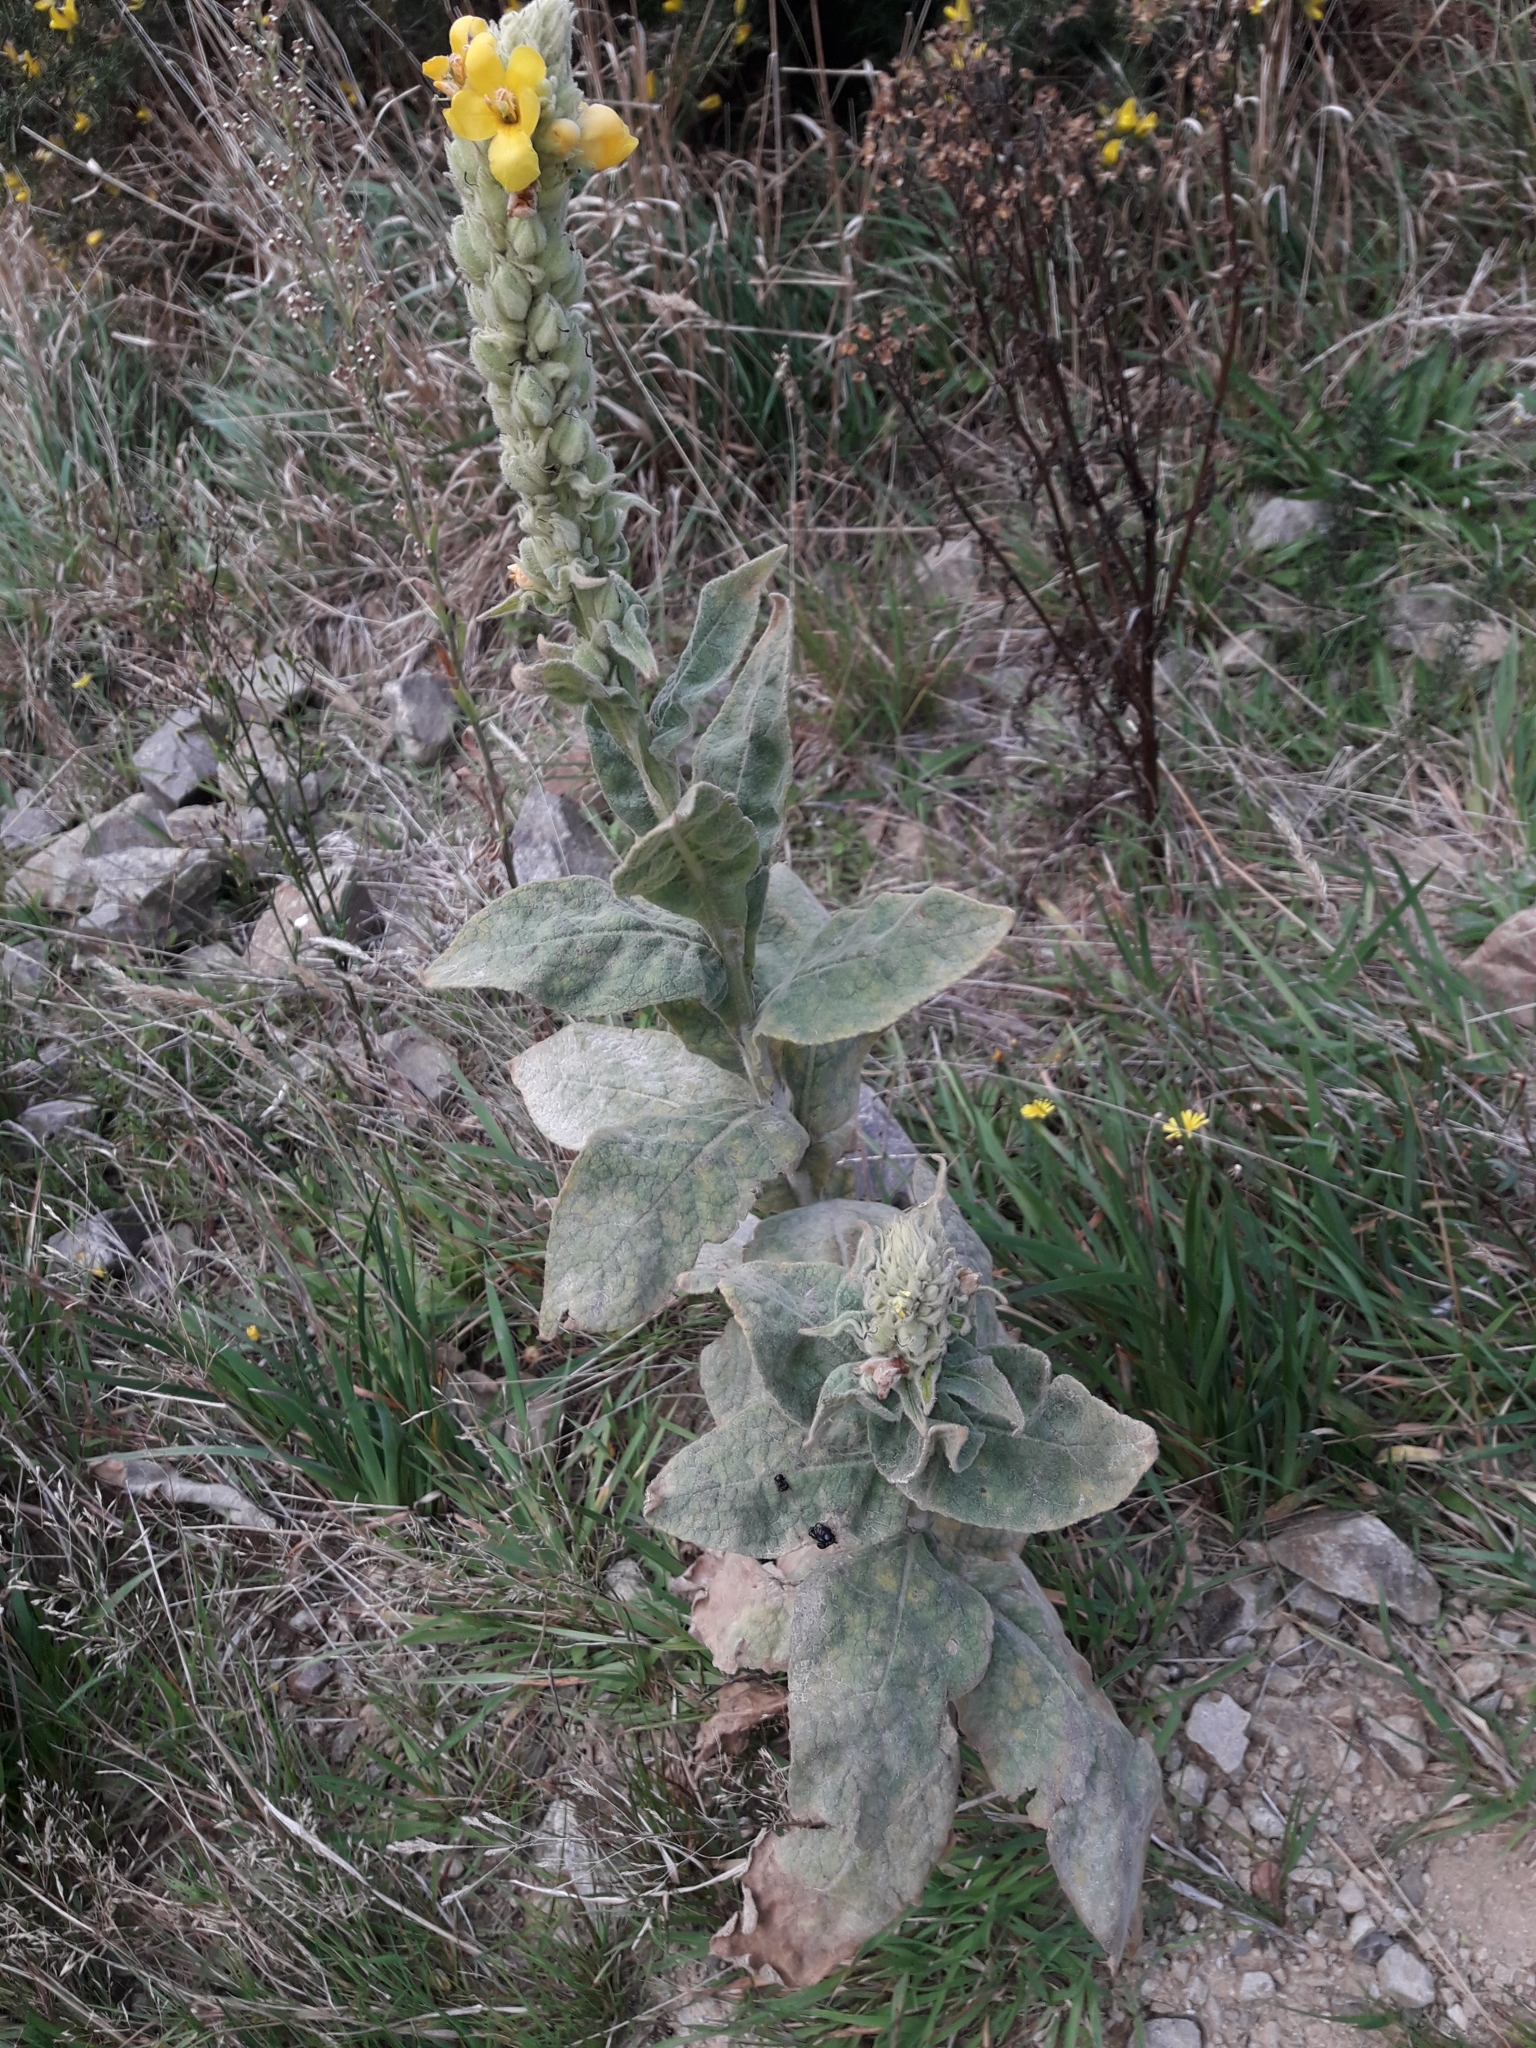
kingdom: Plantae
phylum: Tracheophyta
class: Magnoliopsida
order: Lamiales
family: Scrophulariaceae
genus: Verbascum
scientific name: Verbascum thapsus
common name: Common mullein
